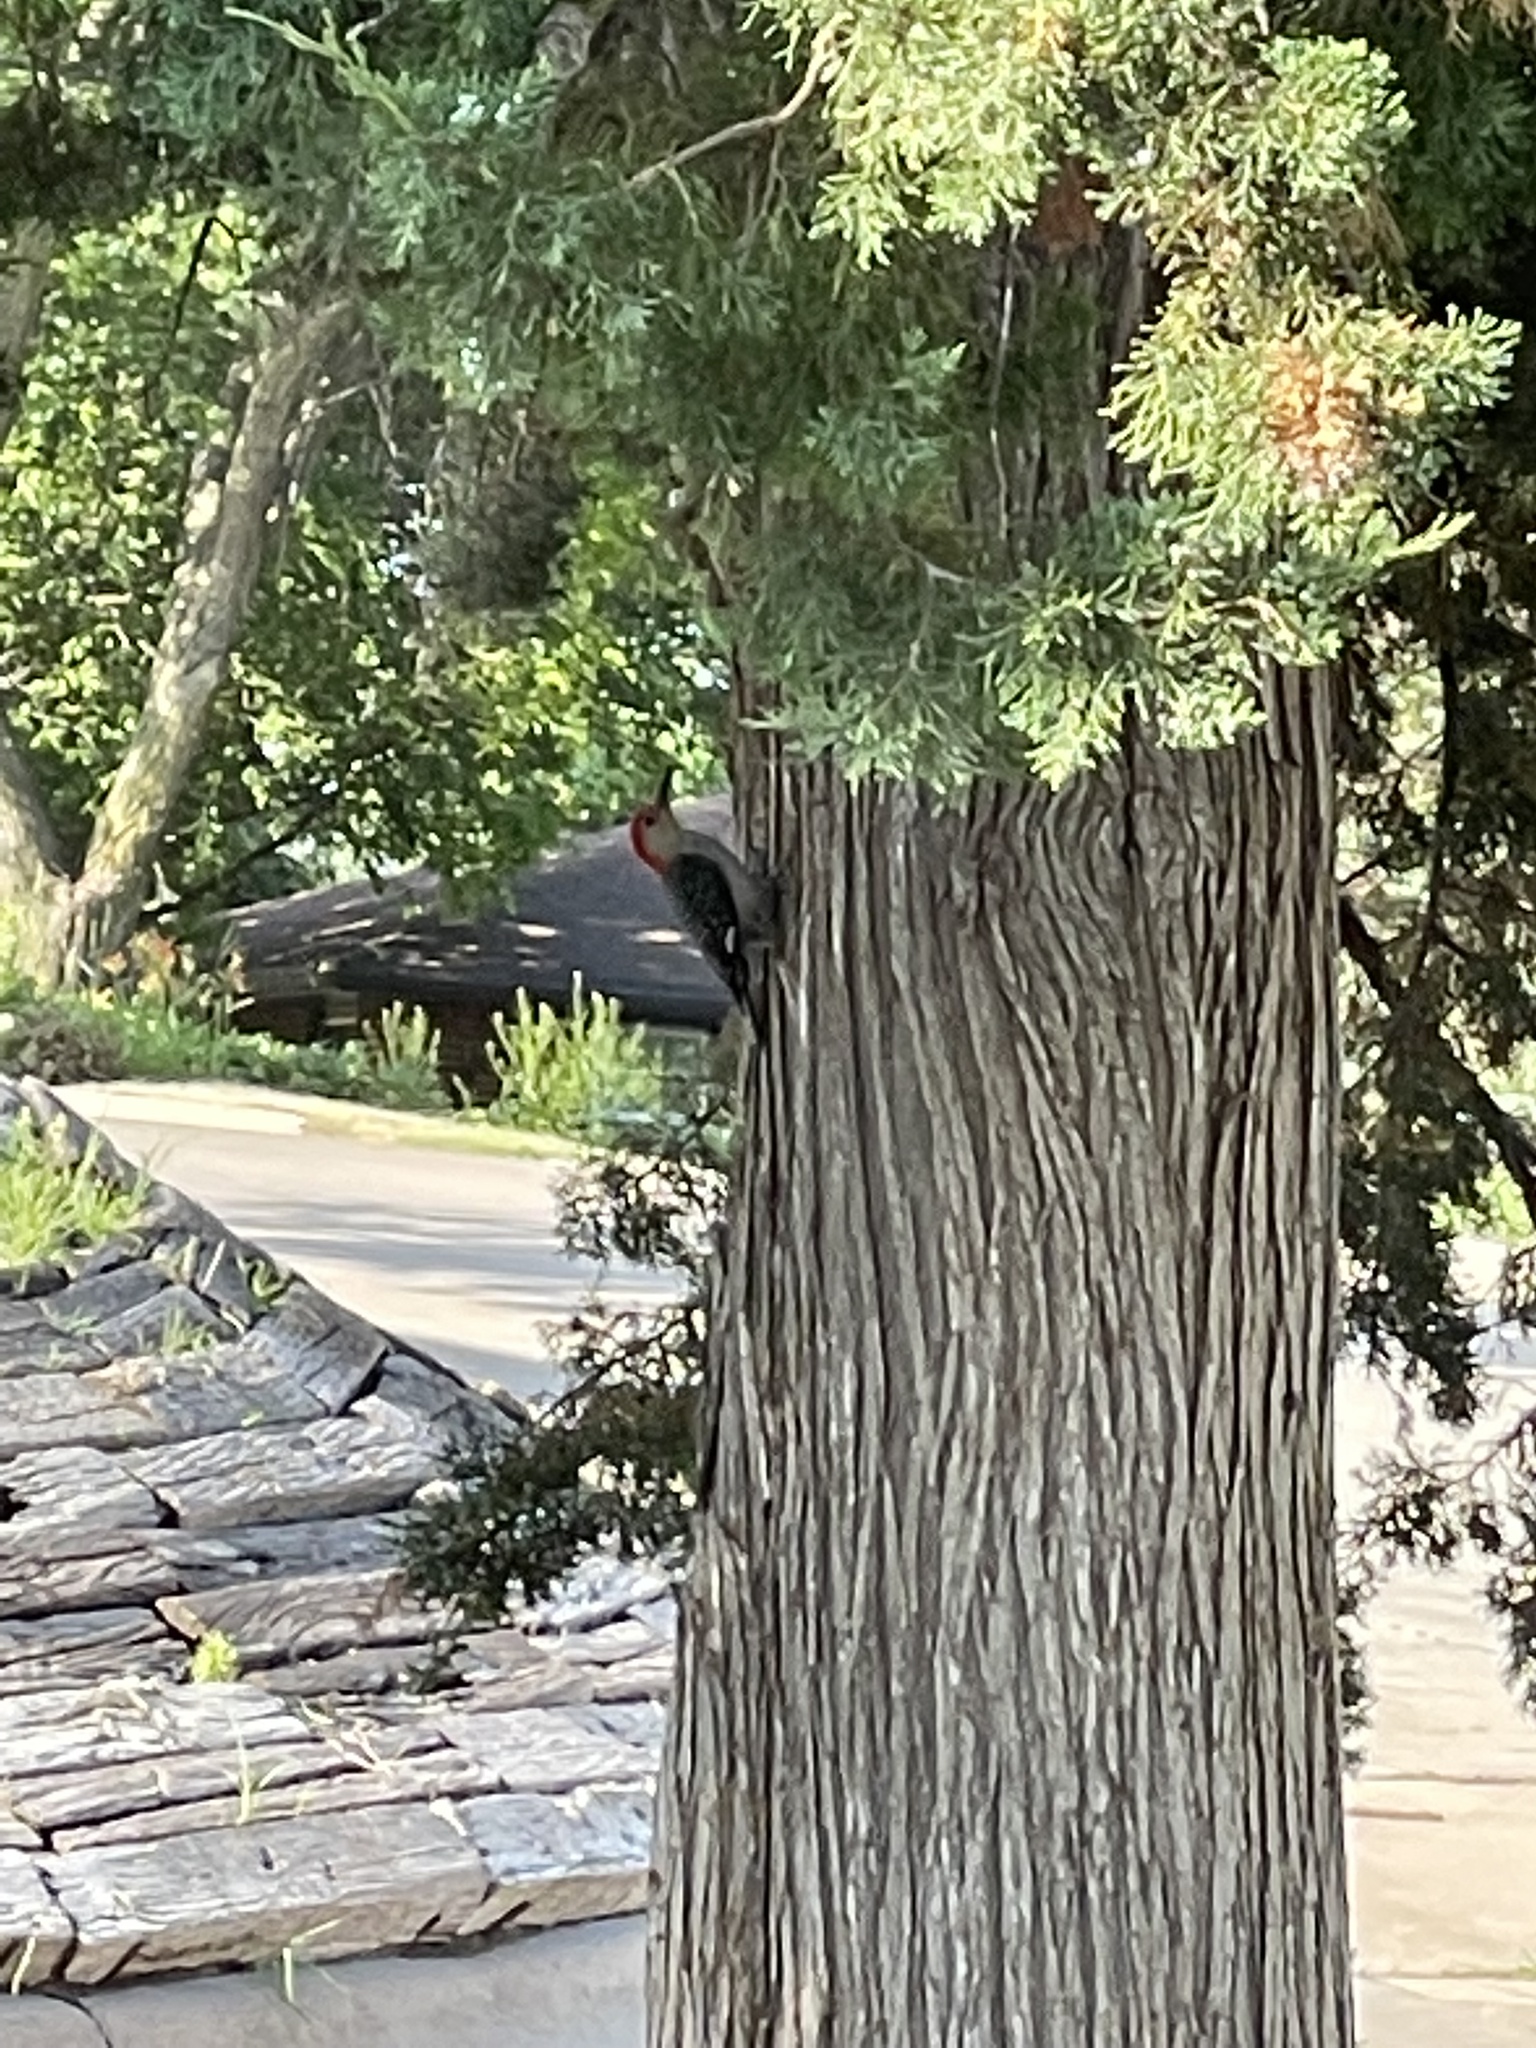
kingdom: Animalia
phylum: Chordata
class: Aves
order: Piciformes
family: Picidae
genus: Melanerpes
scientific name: Melanerpes carolinus
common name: Red-bellied woodpecker
